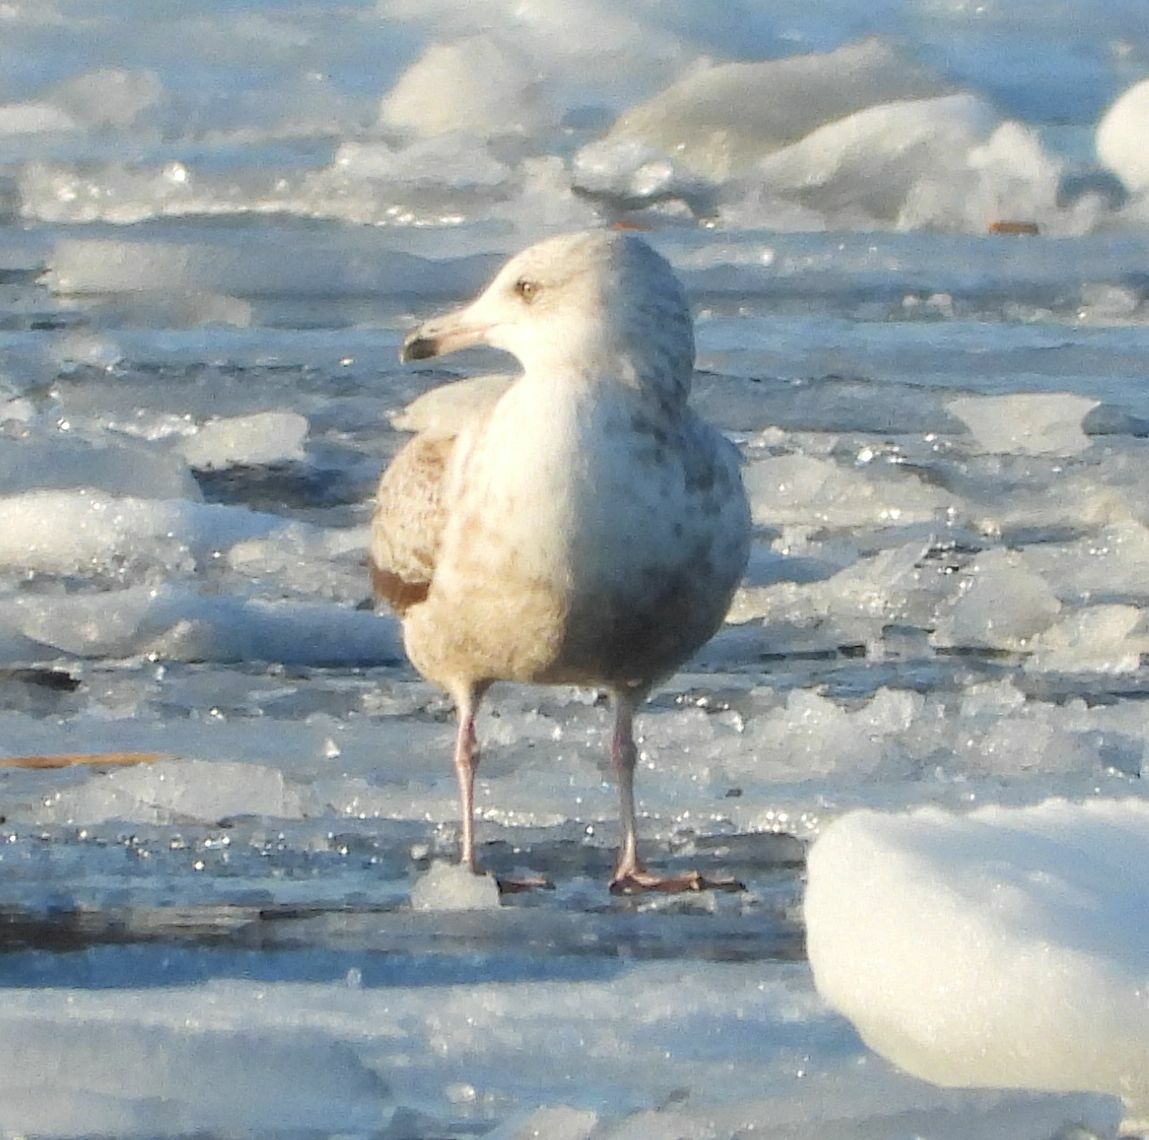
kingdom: Animalia
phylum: Chordata
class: Aves
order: Charadriiformes
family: Laridae
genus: Larus
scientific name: Larus argentatus
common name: Herring gull
